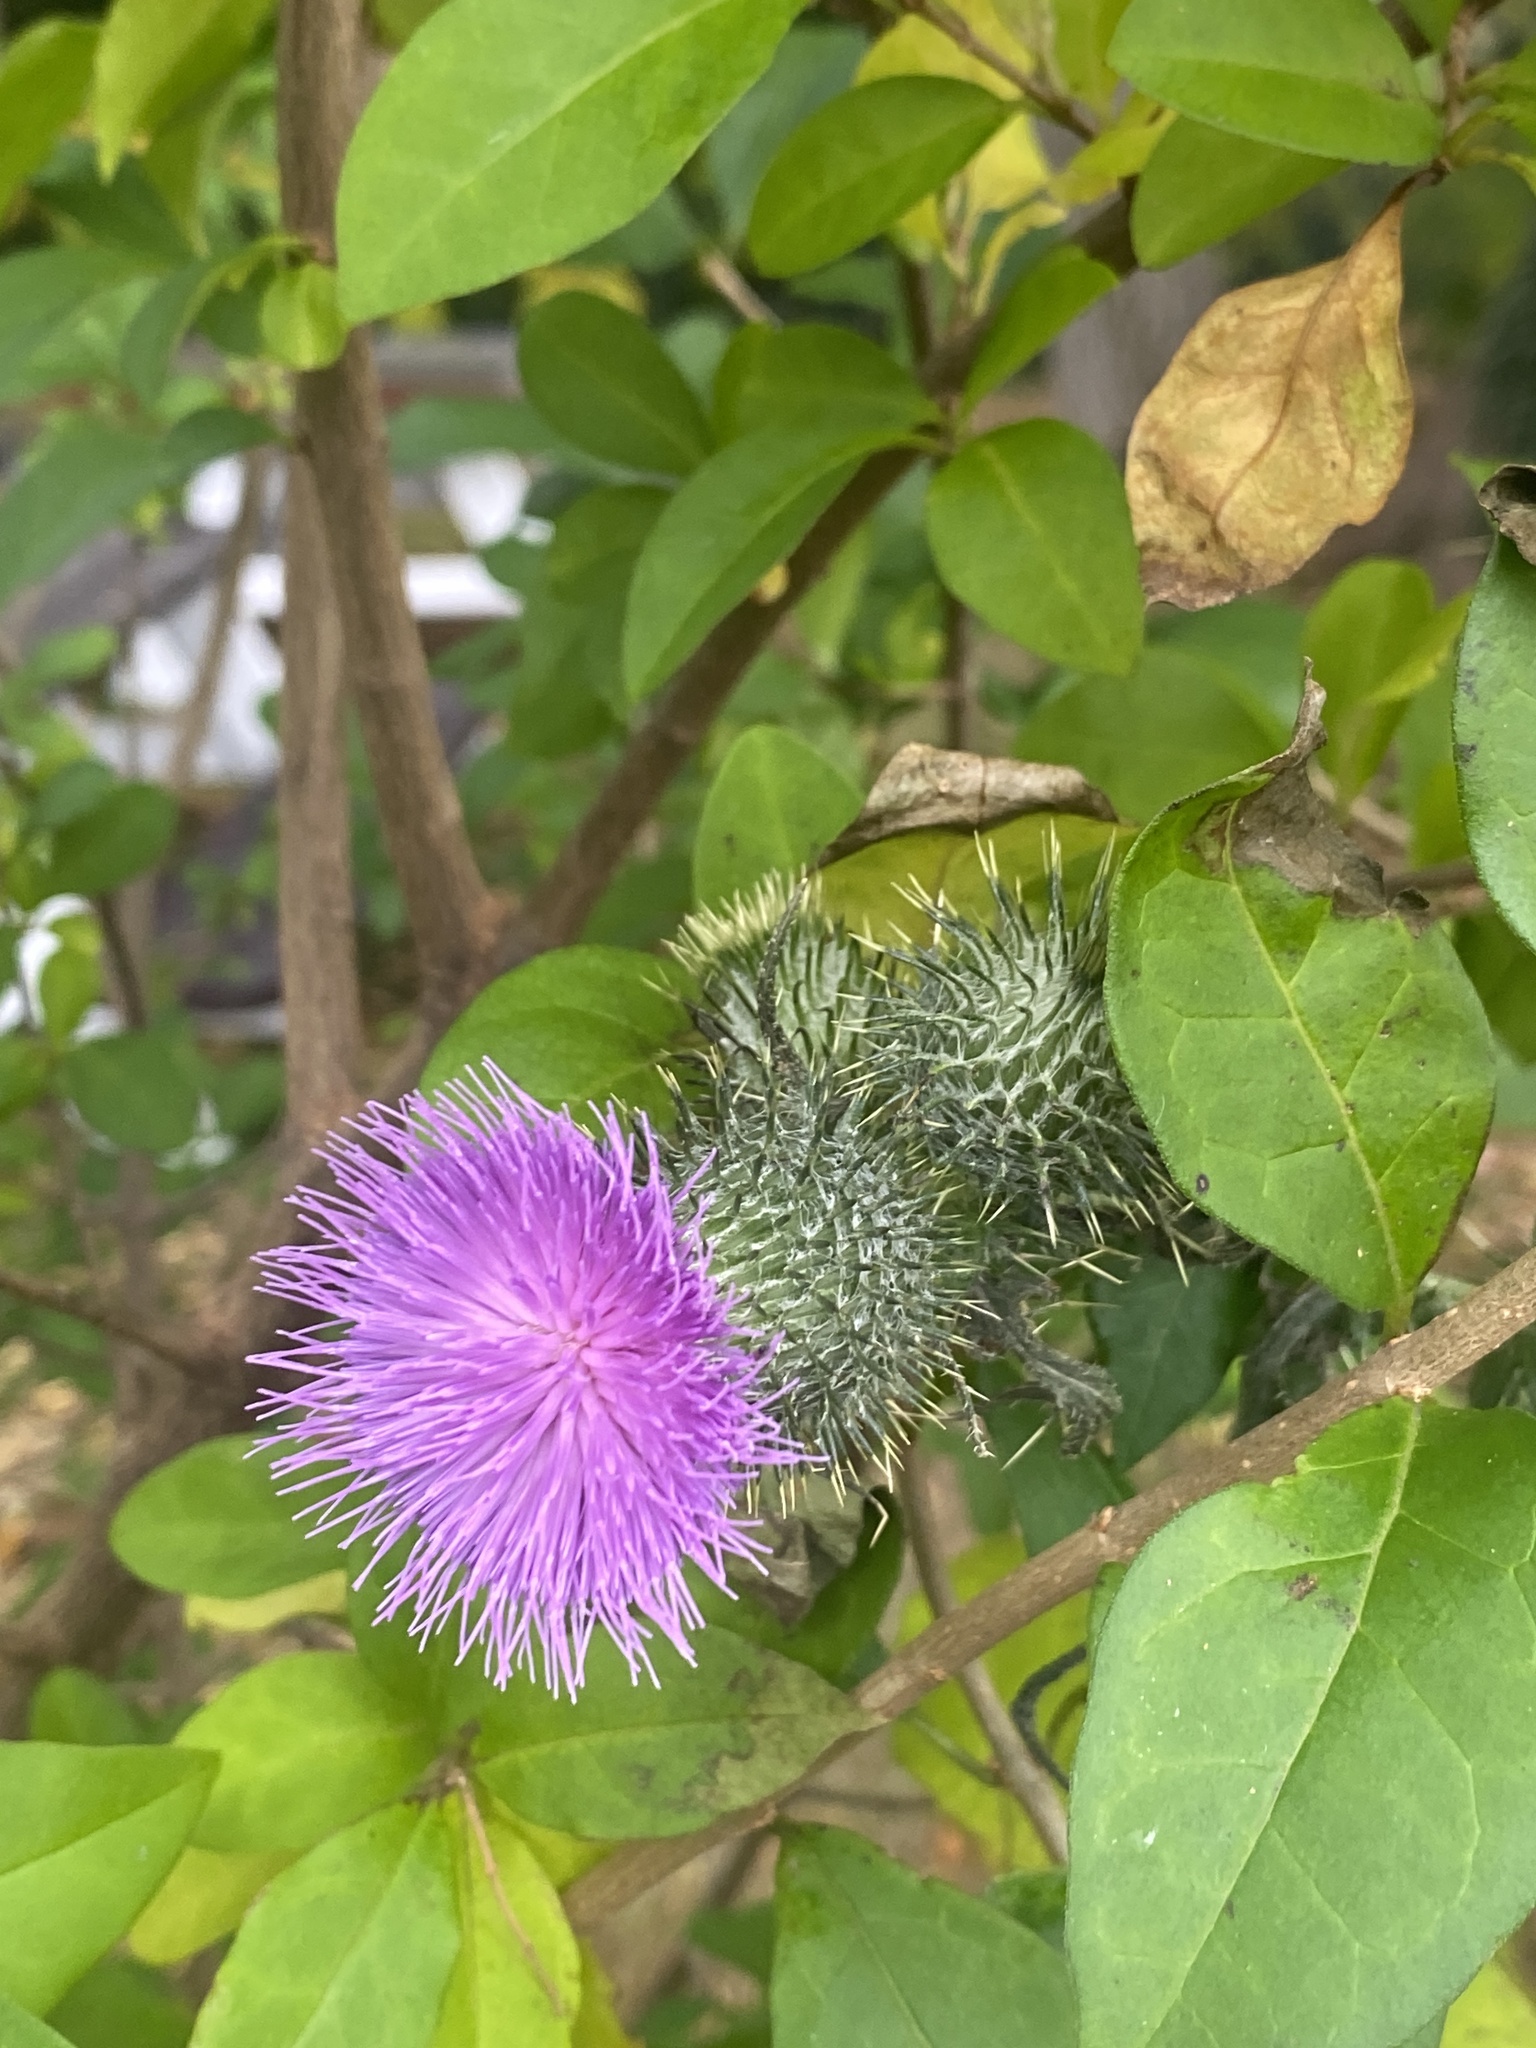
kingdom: Plantae
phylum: Tracheophyta
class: Magnoliopsida
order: Asterales
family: Asteraceae
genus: Cirsium
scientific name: Cirsium vulgare
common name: Bull thistle
